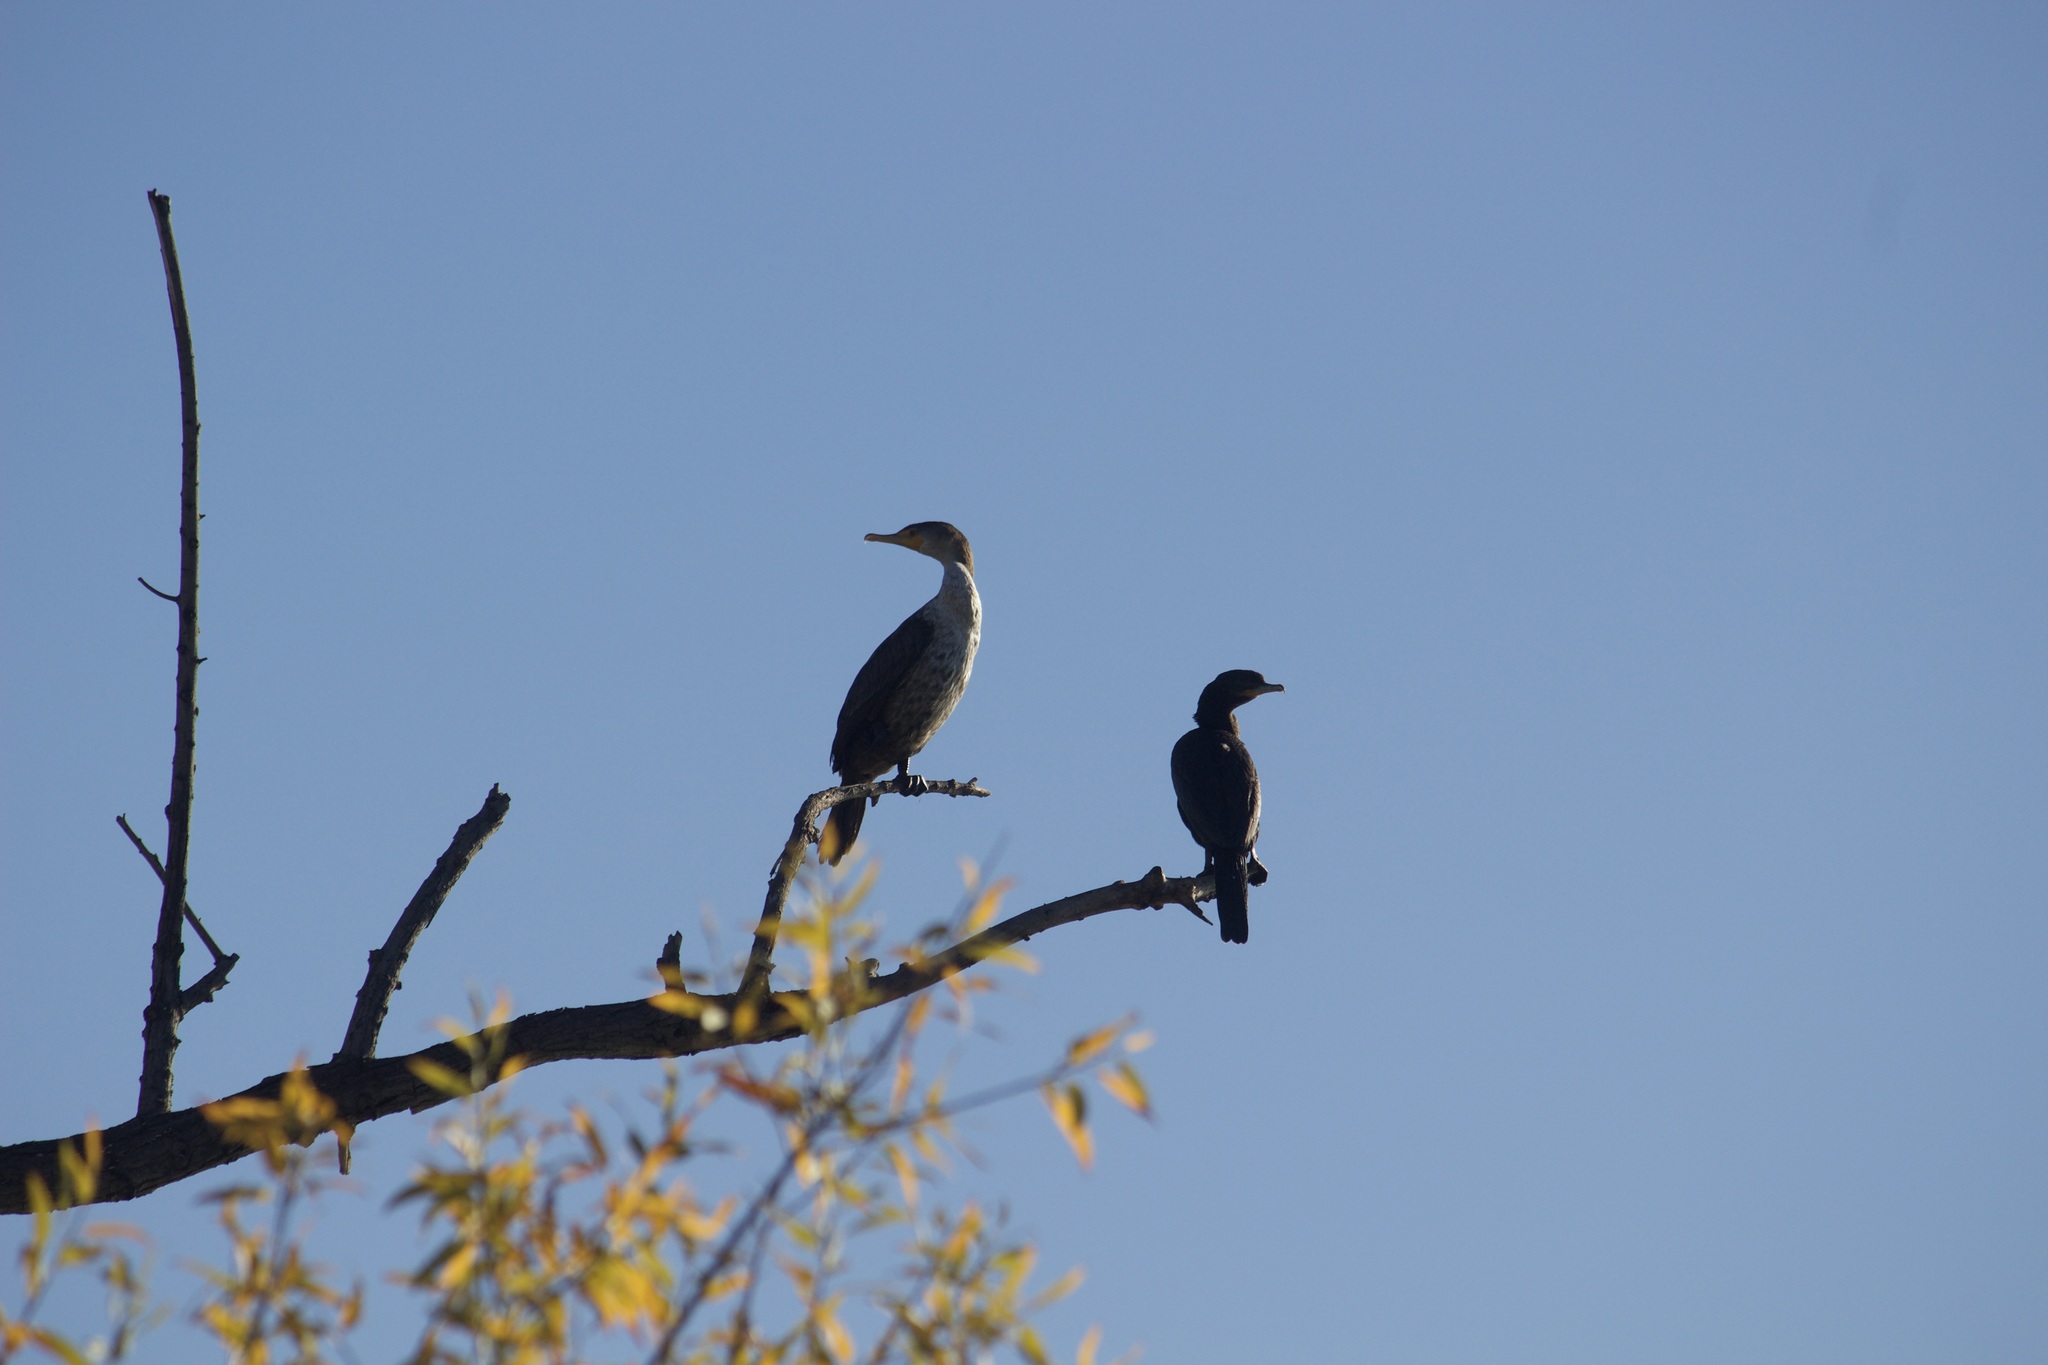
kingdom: Animalia
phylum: Chordata
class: Aves
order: Suliformes
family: Phalacrocoracidae
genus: Phalacrocorax
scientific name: Phalacrocorax auritus
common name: Double-crested cormorant
